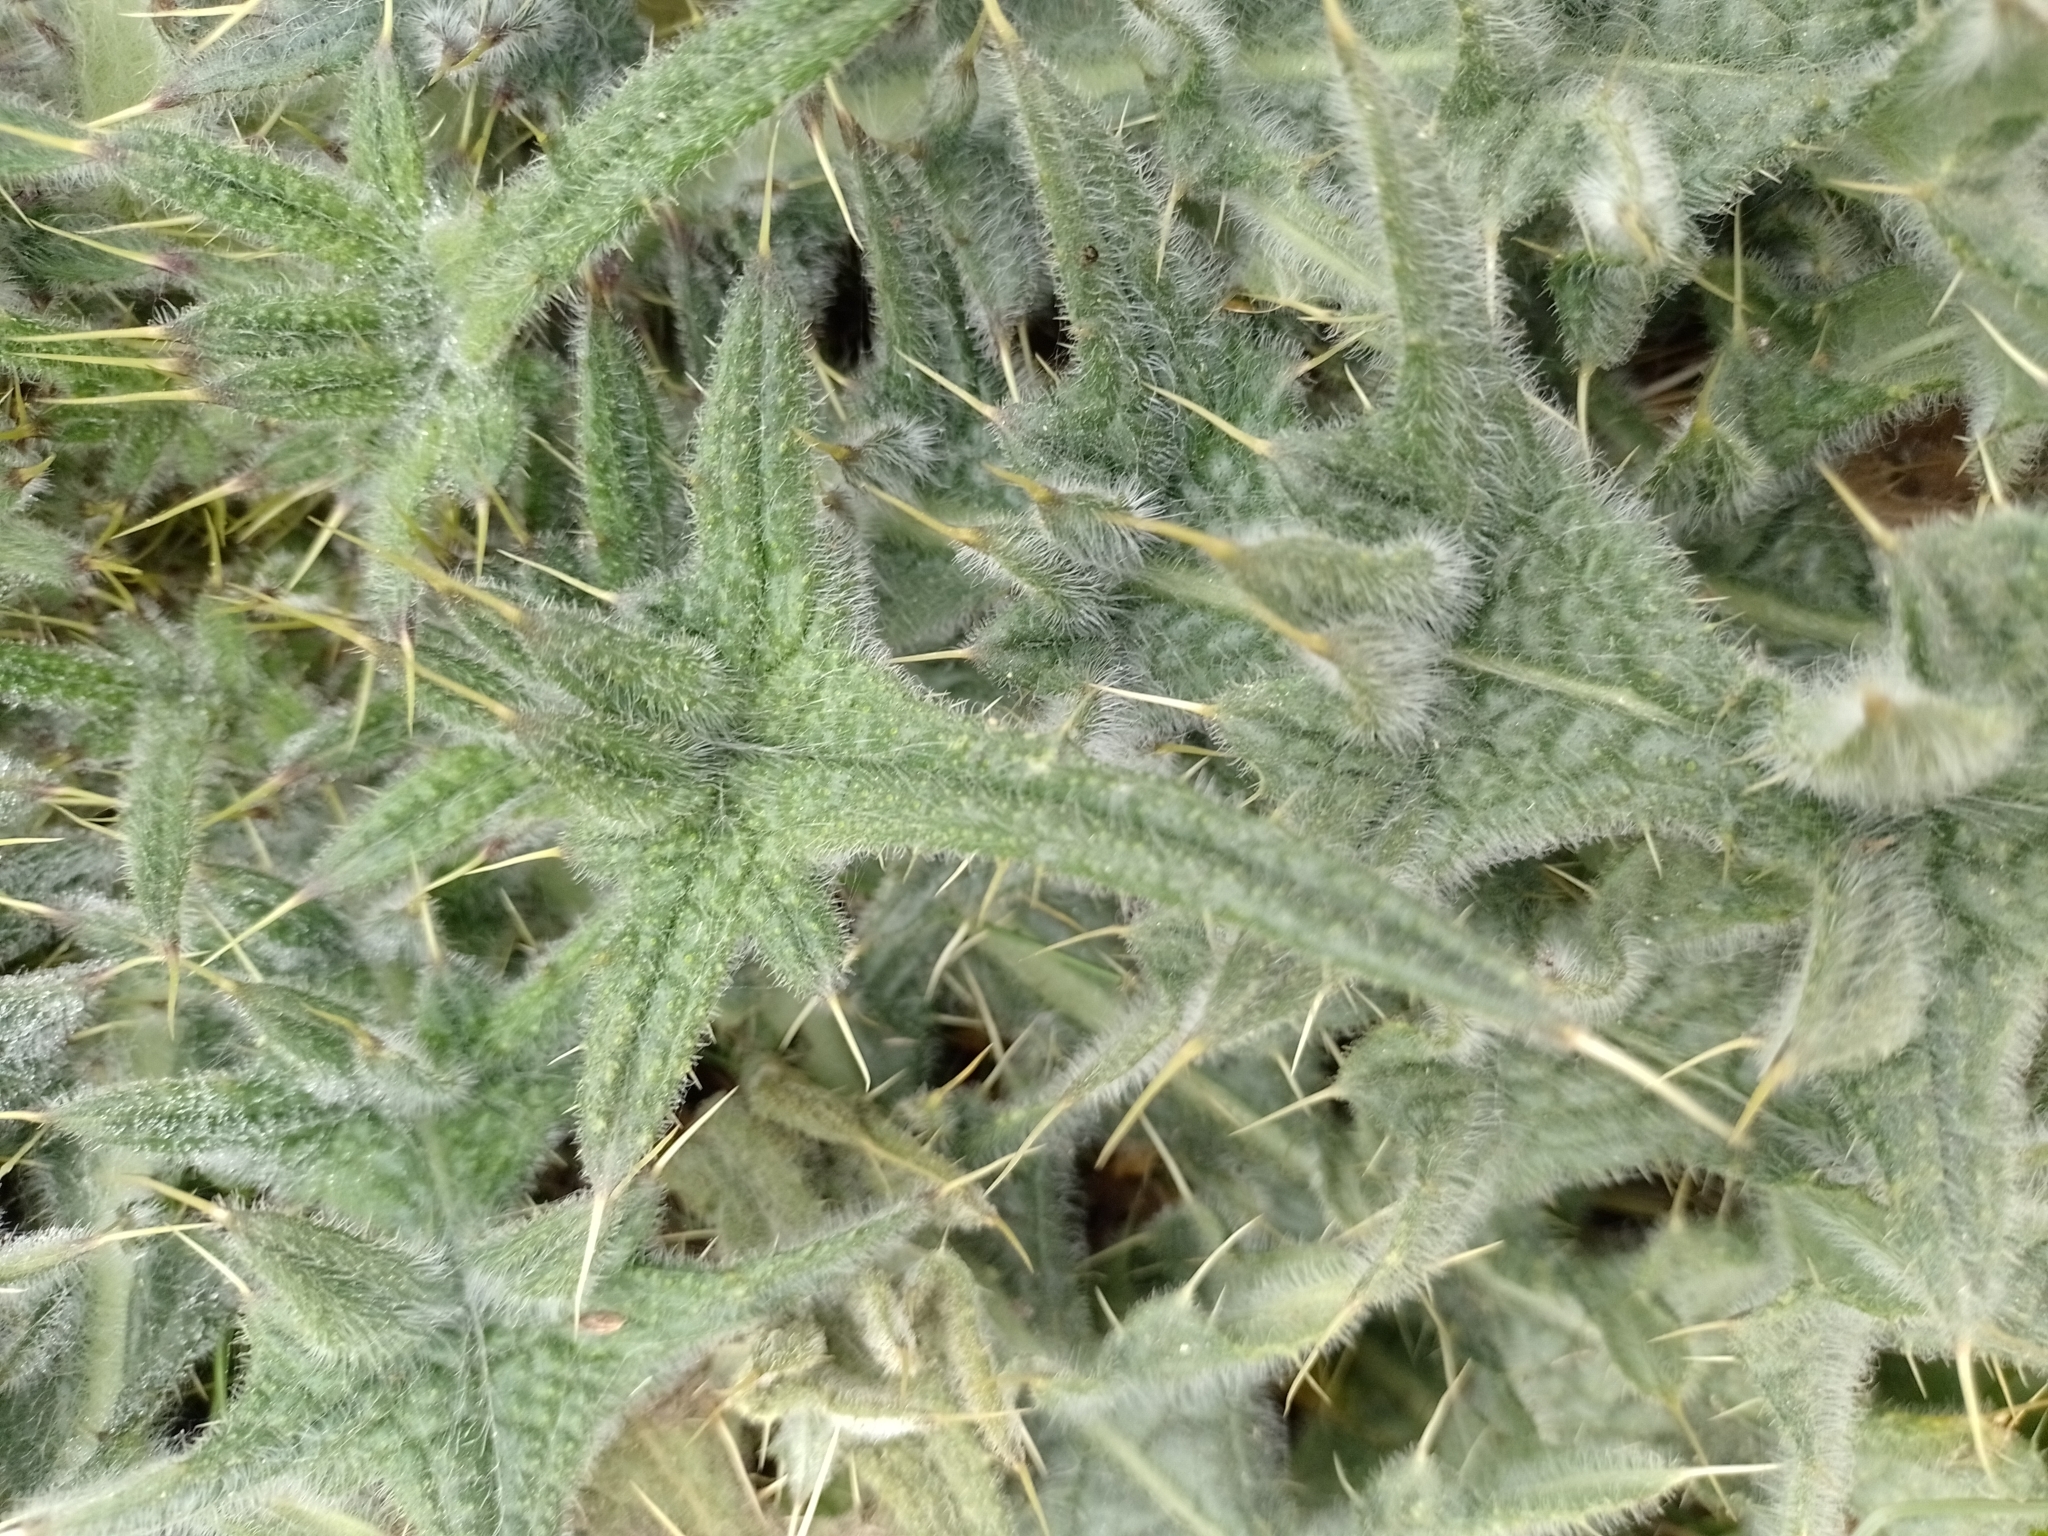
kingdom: Plantae
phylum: Tracheophyta
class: Magnoliopsida
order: Asterales
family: Asteraceae
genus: Cirsium
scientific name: Cirsium vulgare
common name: Bull thistle
